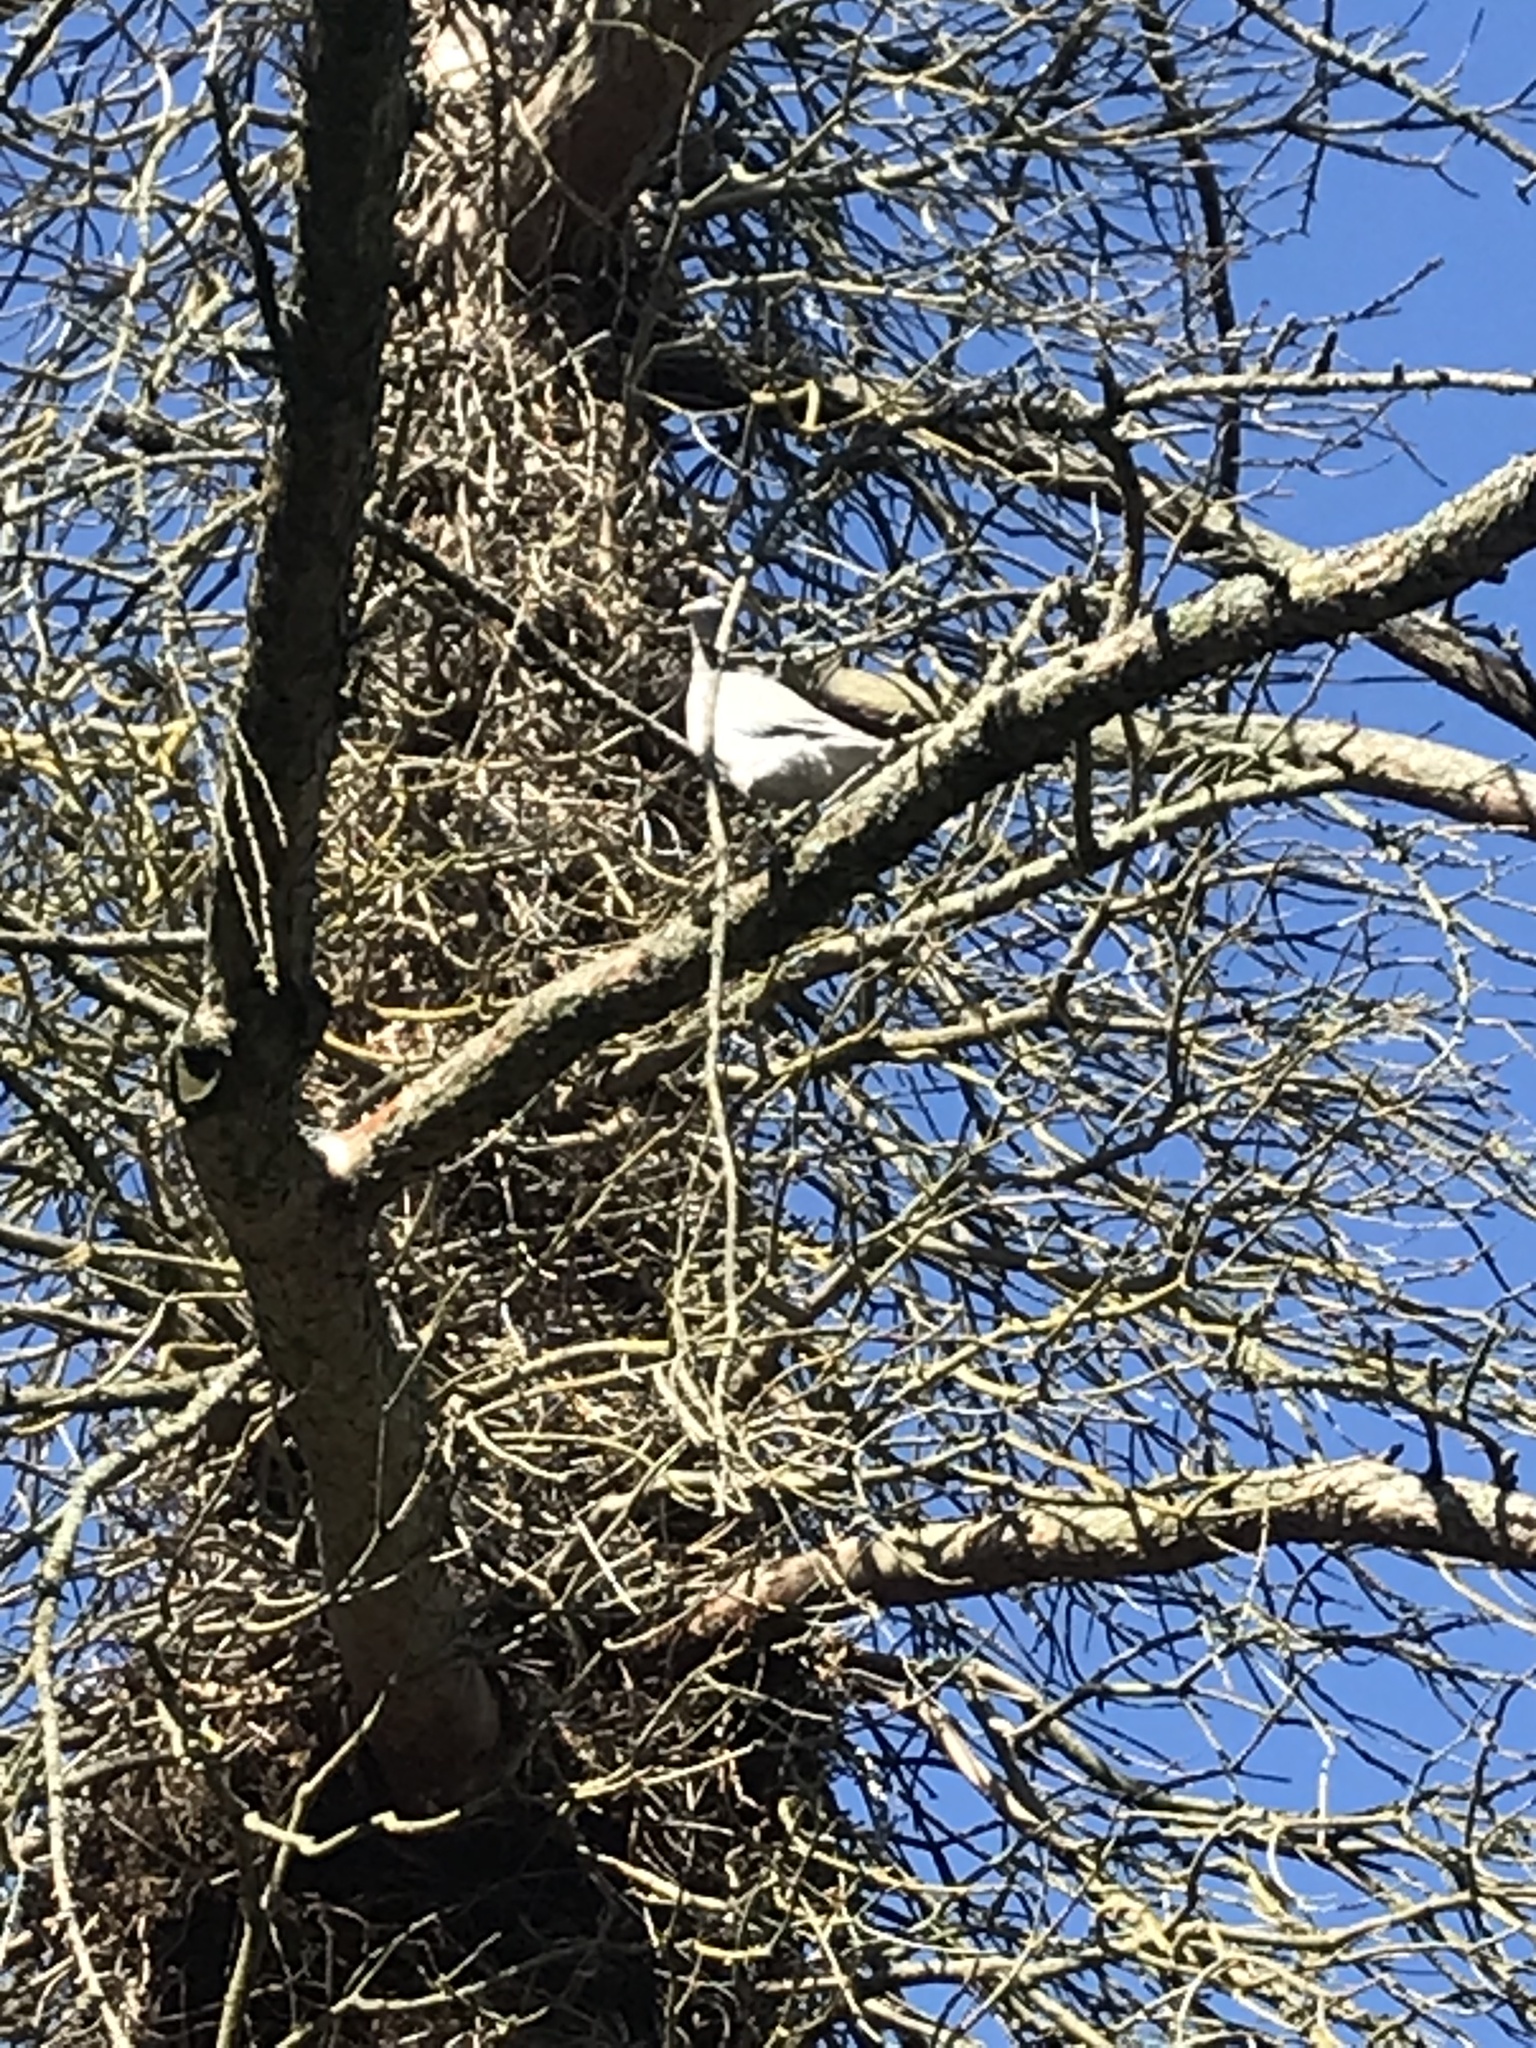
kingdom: Animalia
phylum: Chordata
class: Aves
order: Columbiformes
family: Columbidae
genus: Columba
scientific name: Columba palumbus
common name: Common wood pigeon
